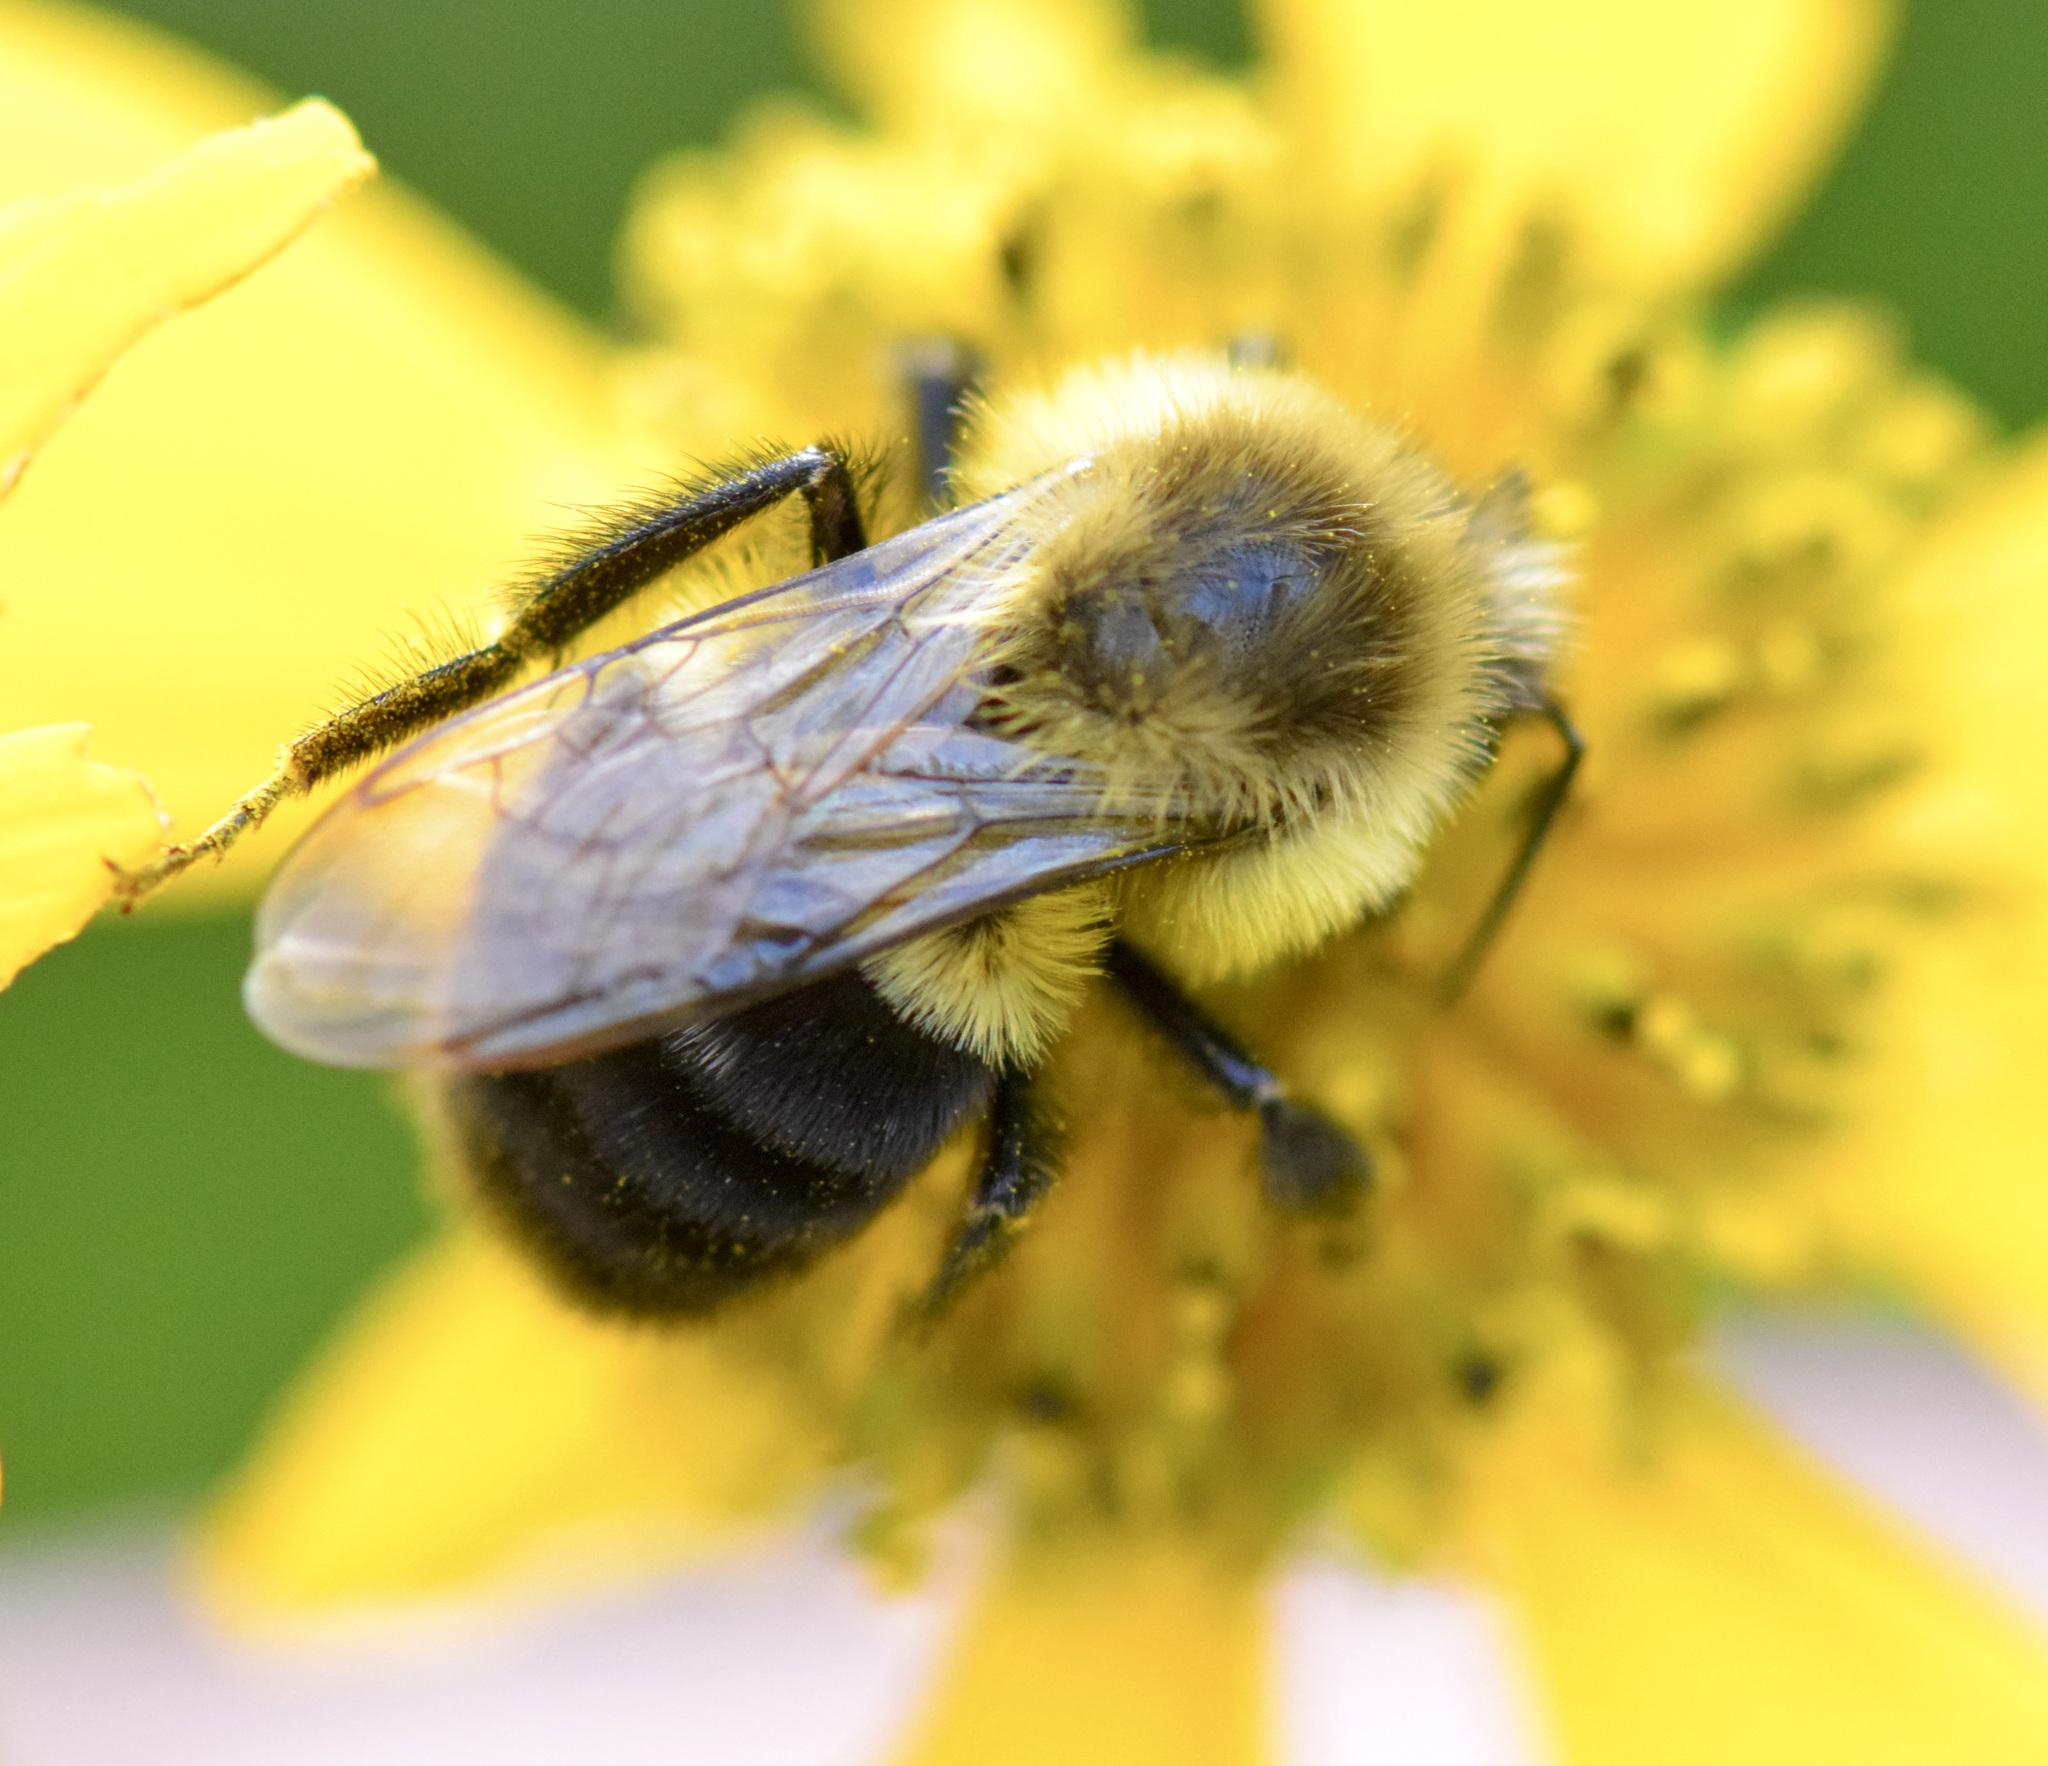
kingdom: Animalia
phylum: Arthropoda
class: Insecta
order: Hymenoptera
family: Apidae
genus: Bombus
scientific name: Bombus impatiens
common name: Common eastern bumble bee
